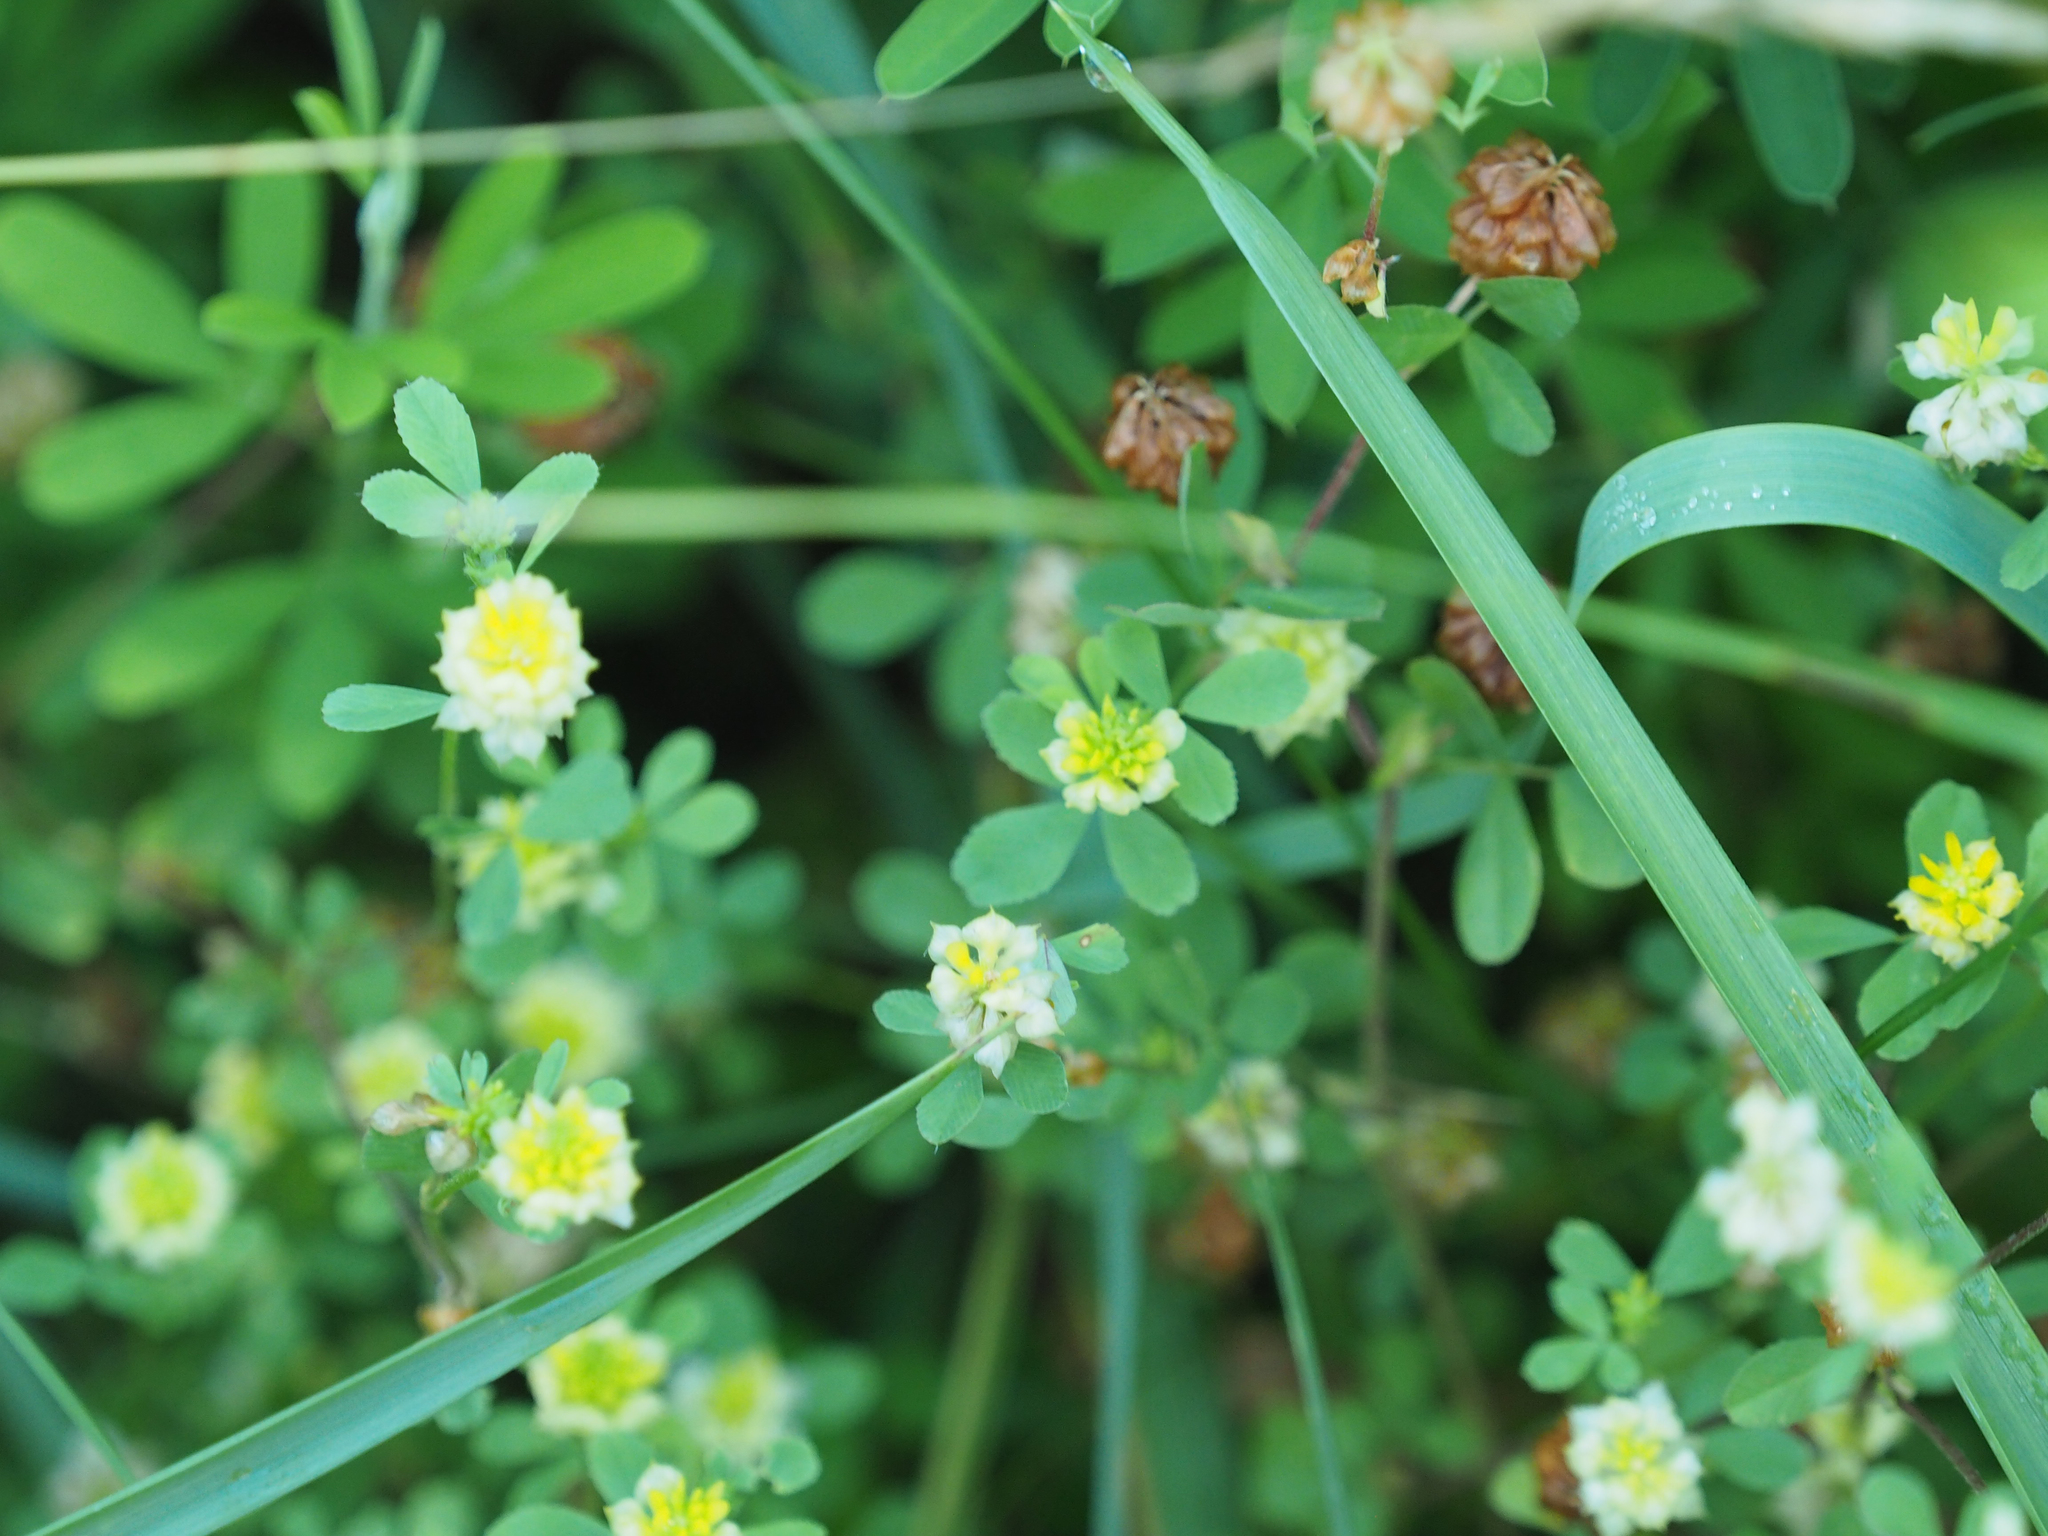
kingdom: Plantae
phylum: Tracheophyta
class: Magnoliopsida
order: Fabales
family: Fabaceae
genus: Trifolium
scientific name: Trifolium campestre
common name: Field clover
